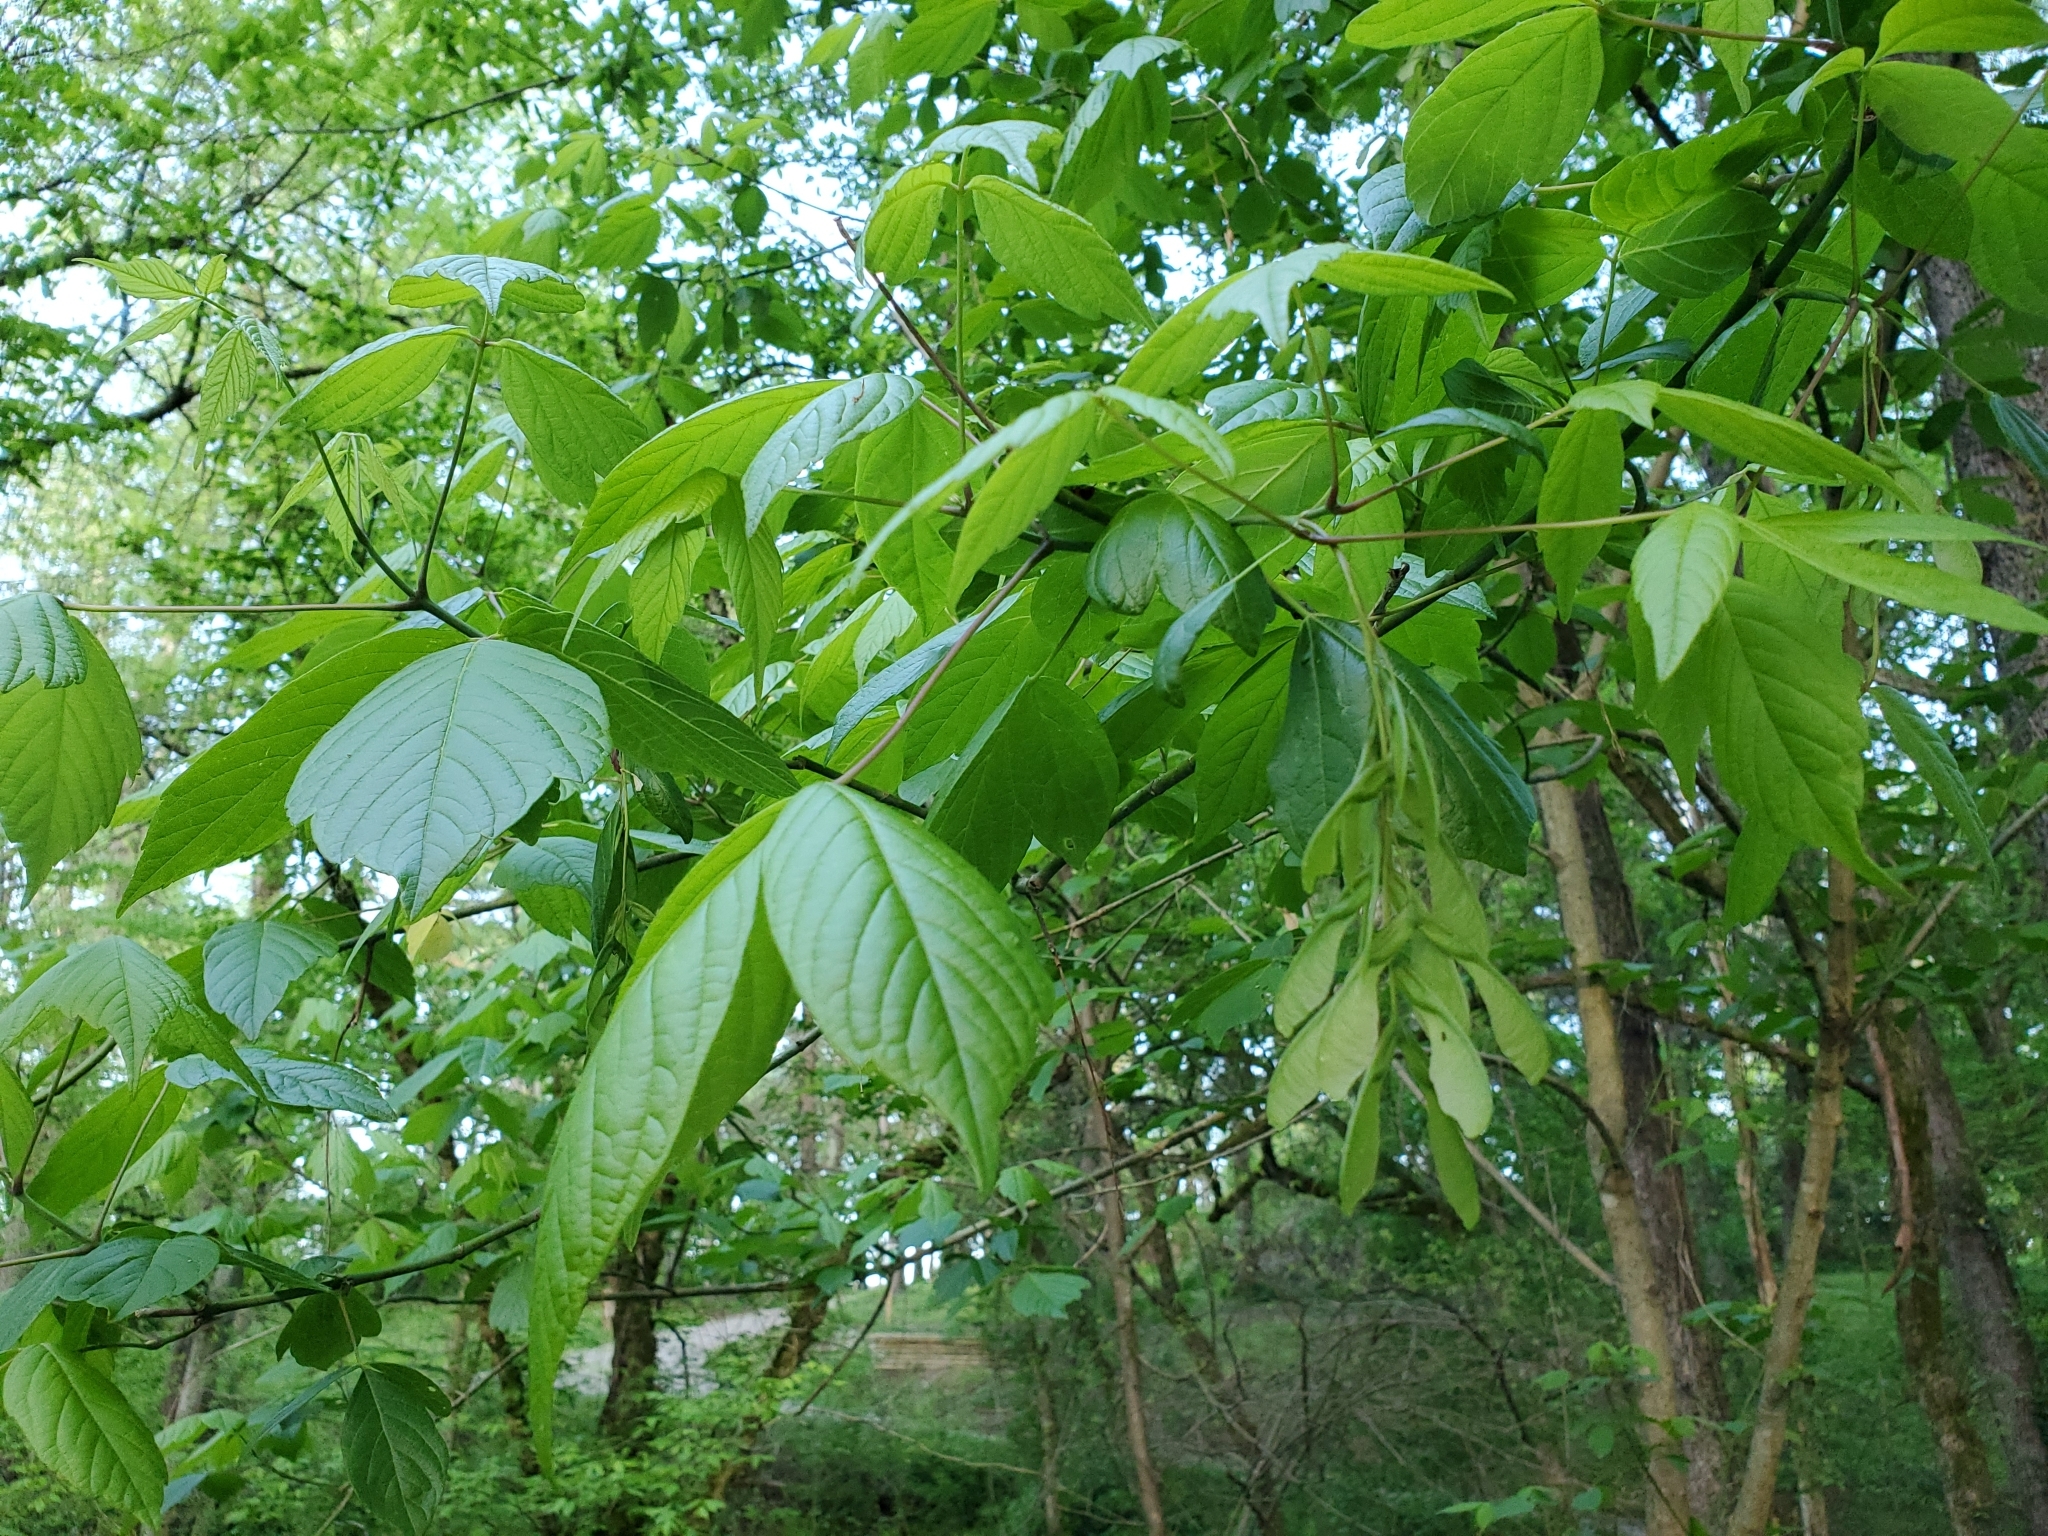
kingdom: Plantae
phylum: Tracheophyta
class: Magnoliopsida
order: Sapindales
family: Sapindaceae
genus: Acer
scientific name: Acer negundo
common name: Ashleaf maple
